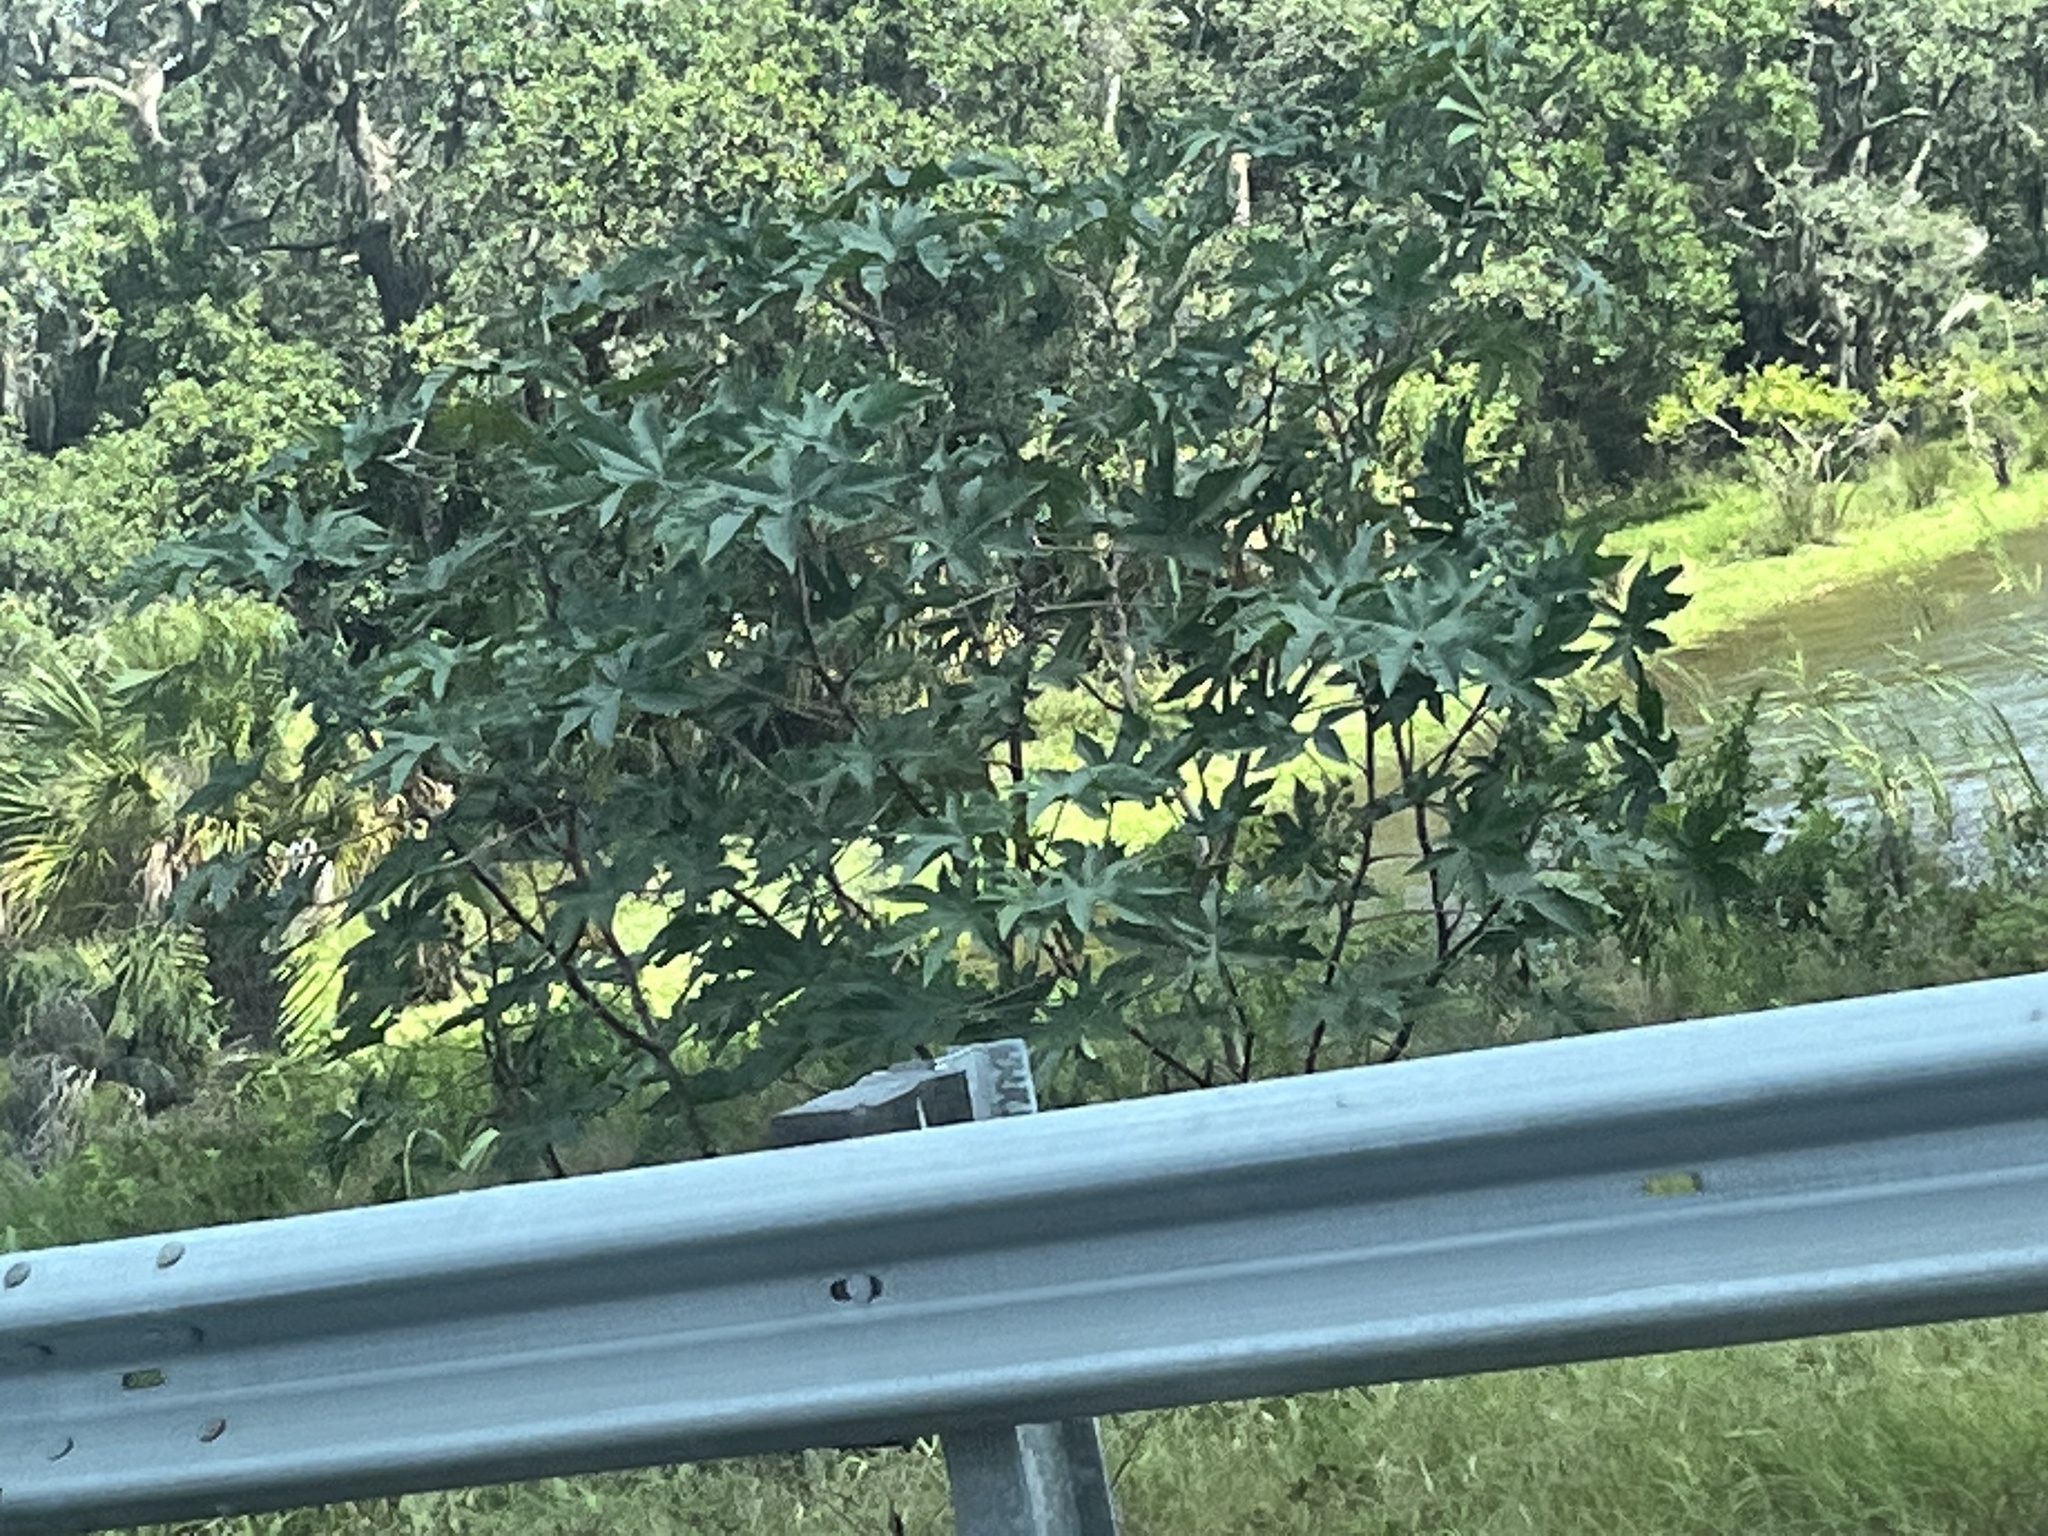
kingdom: Plantae
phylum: Tracheophyta
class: Magnoliopsida
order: Malpighiales
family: Euphorbiaceae
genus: Ricinus
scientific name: Ricinus communis
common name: Castor-oil-plant
